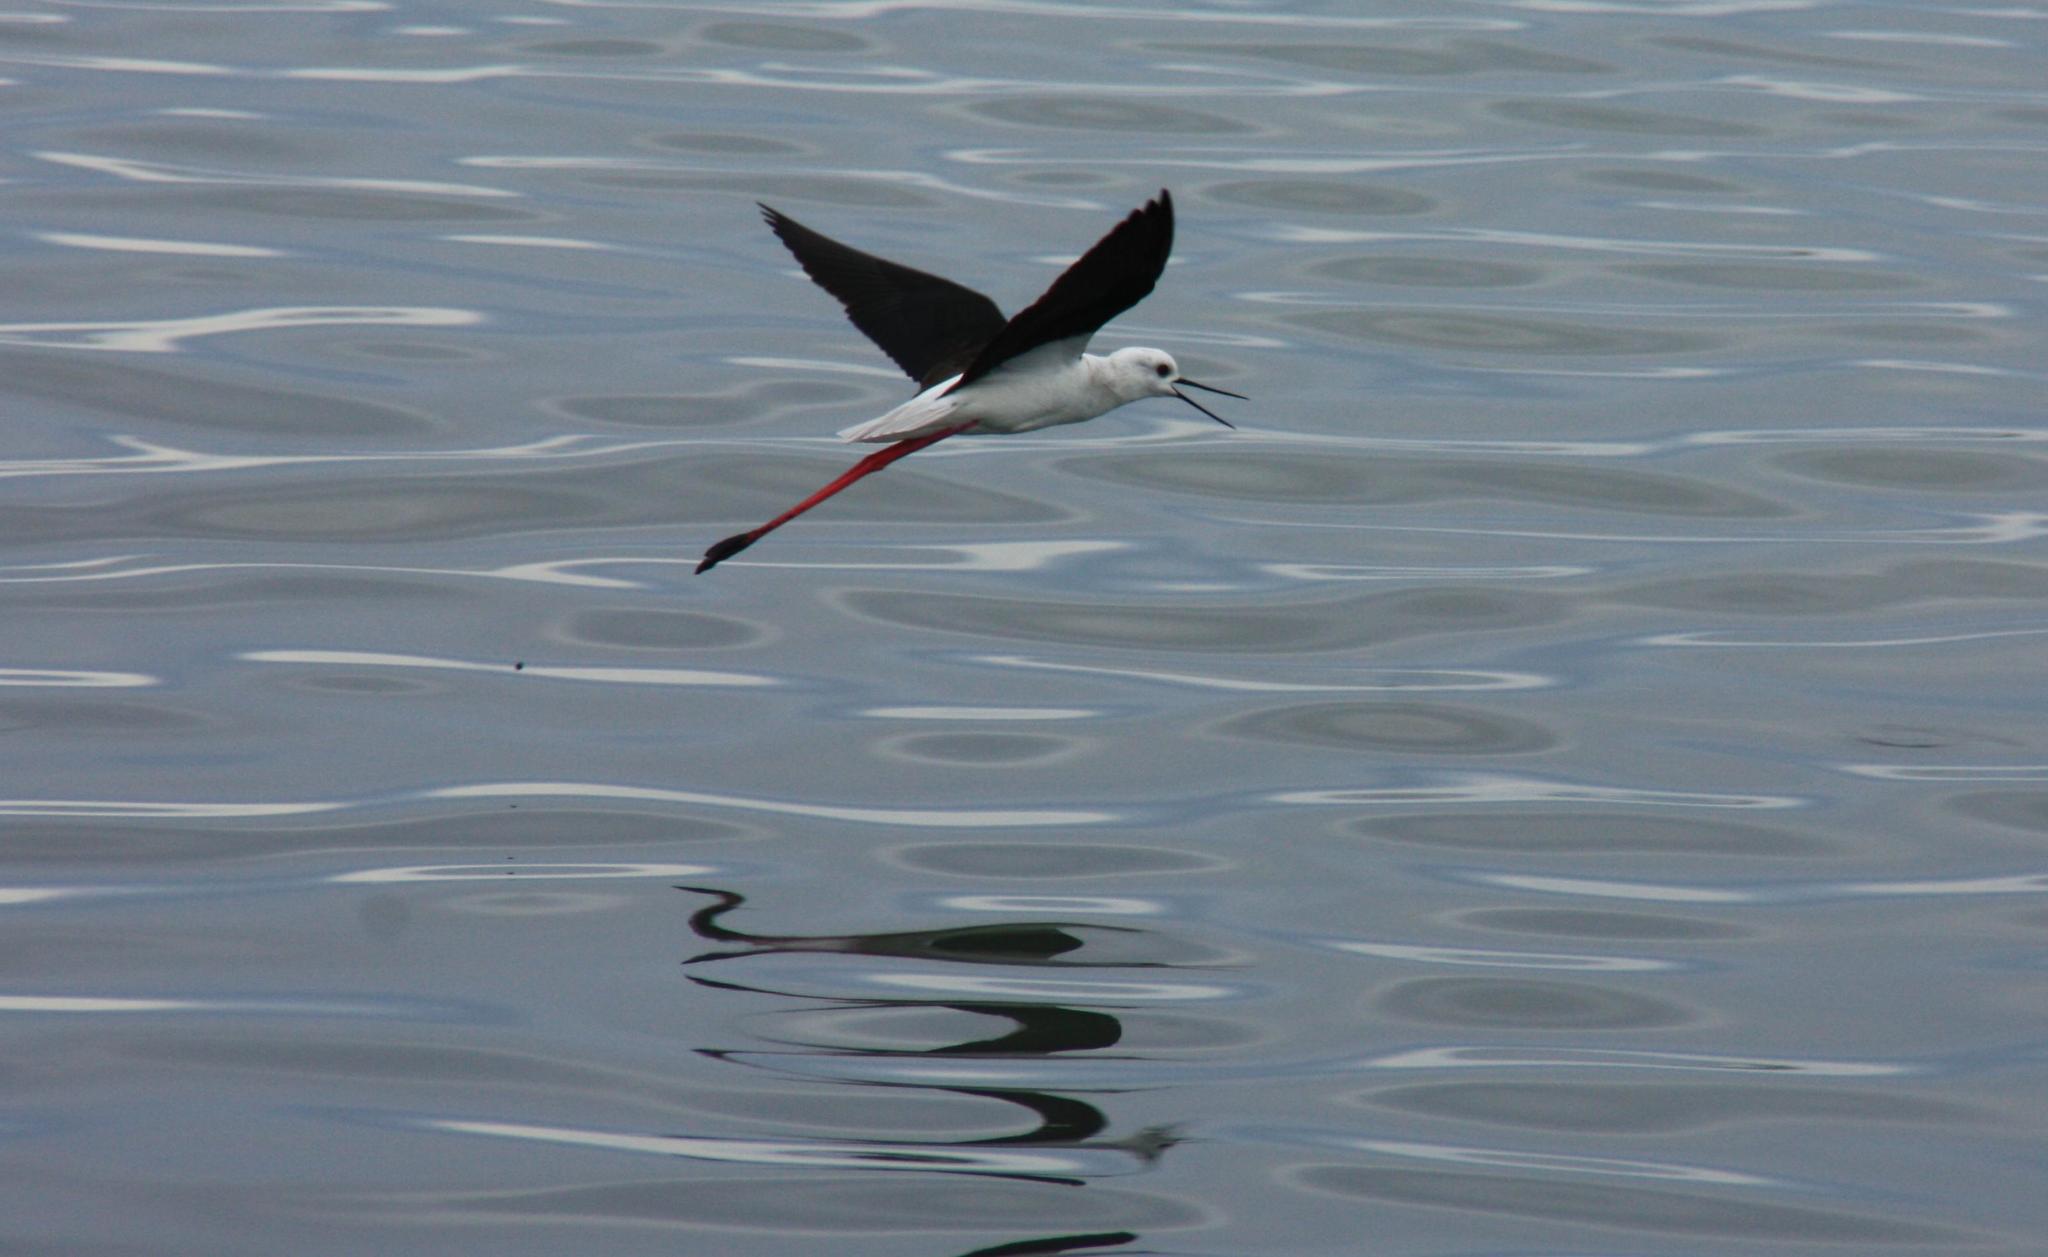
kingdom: Animalia
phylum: Chordata
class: Aves
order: Charadriiformes
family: Recurvirostridae
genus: Himantopus
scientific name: Himantopus himantopus
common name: Black-winged stilt
